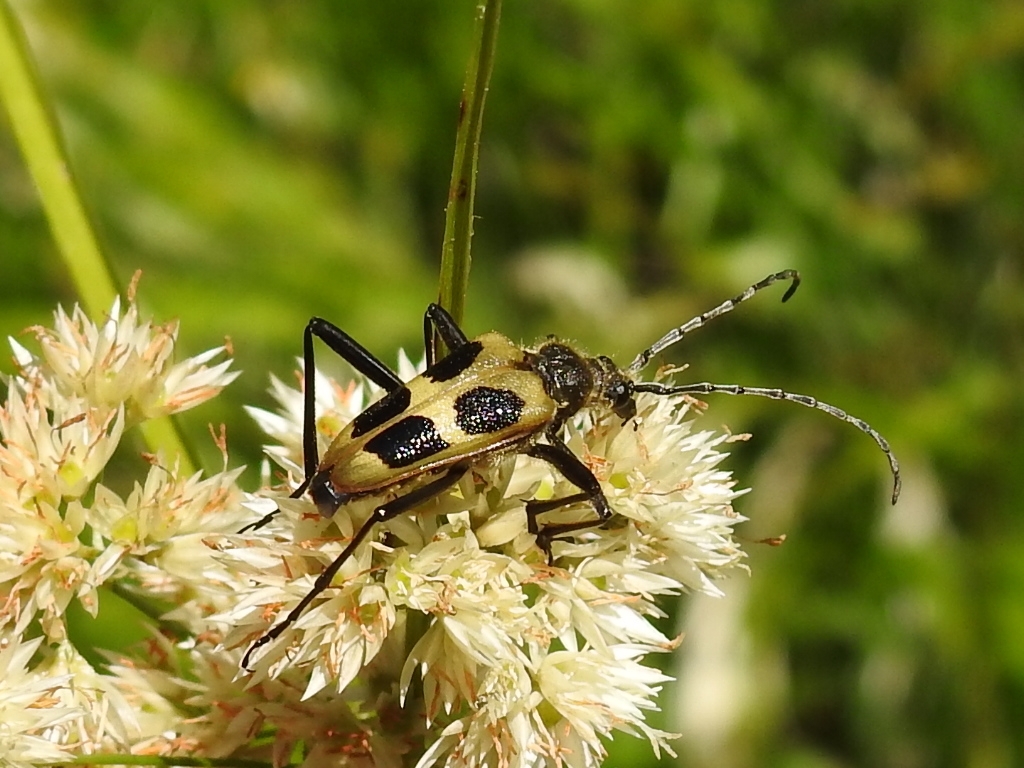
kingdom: Animalia
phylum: Arthropoda
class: Insecta
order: Coleoptera
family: Cerambycidae
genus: Pachyta
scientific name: Pachyta quadrimaculata
